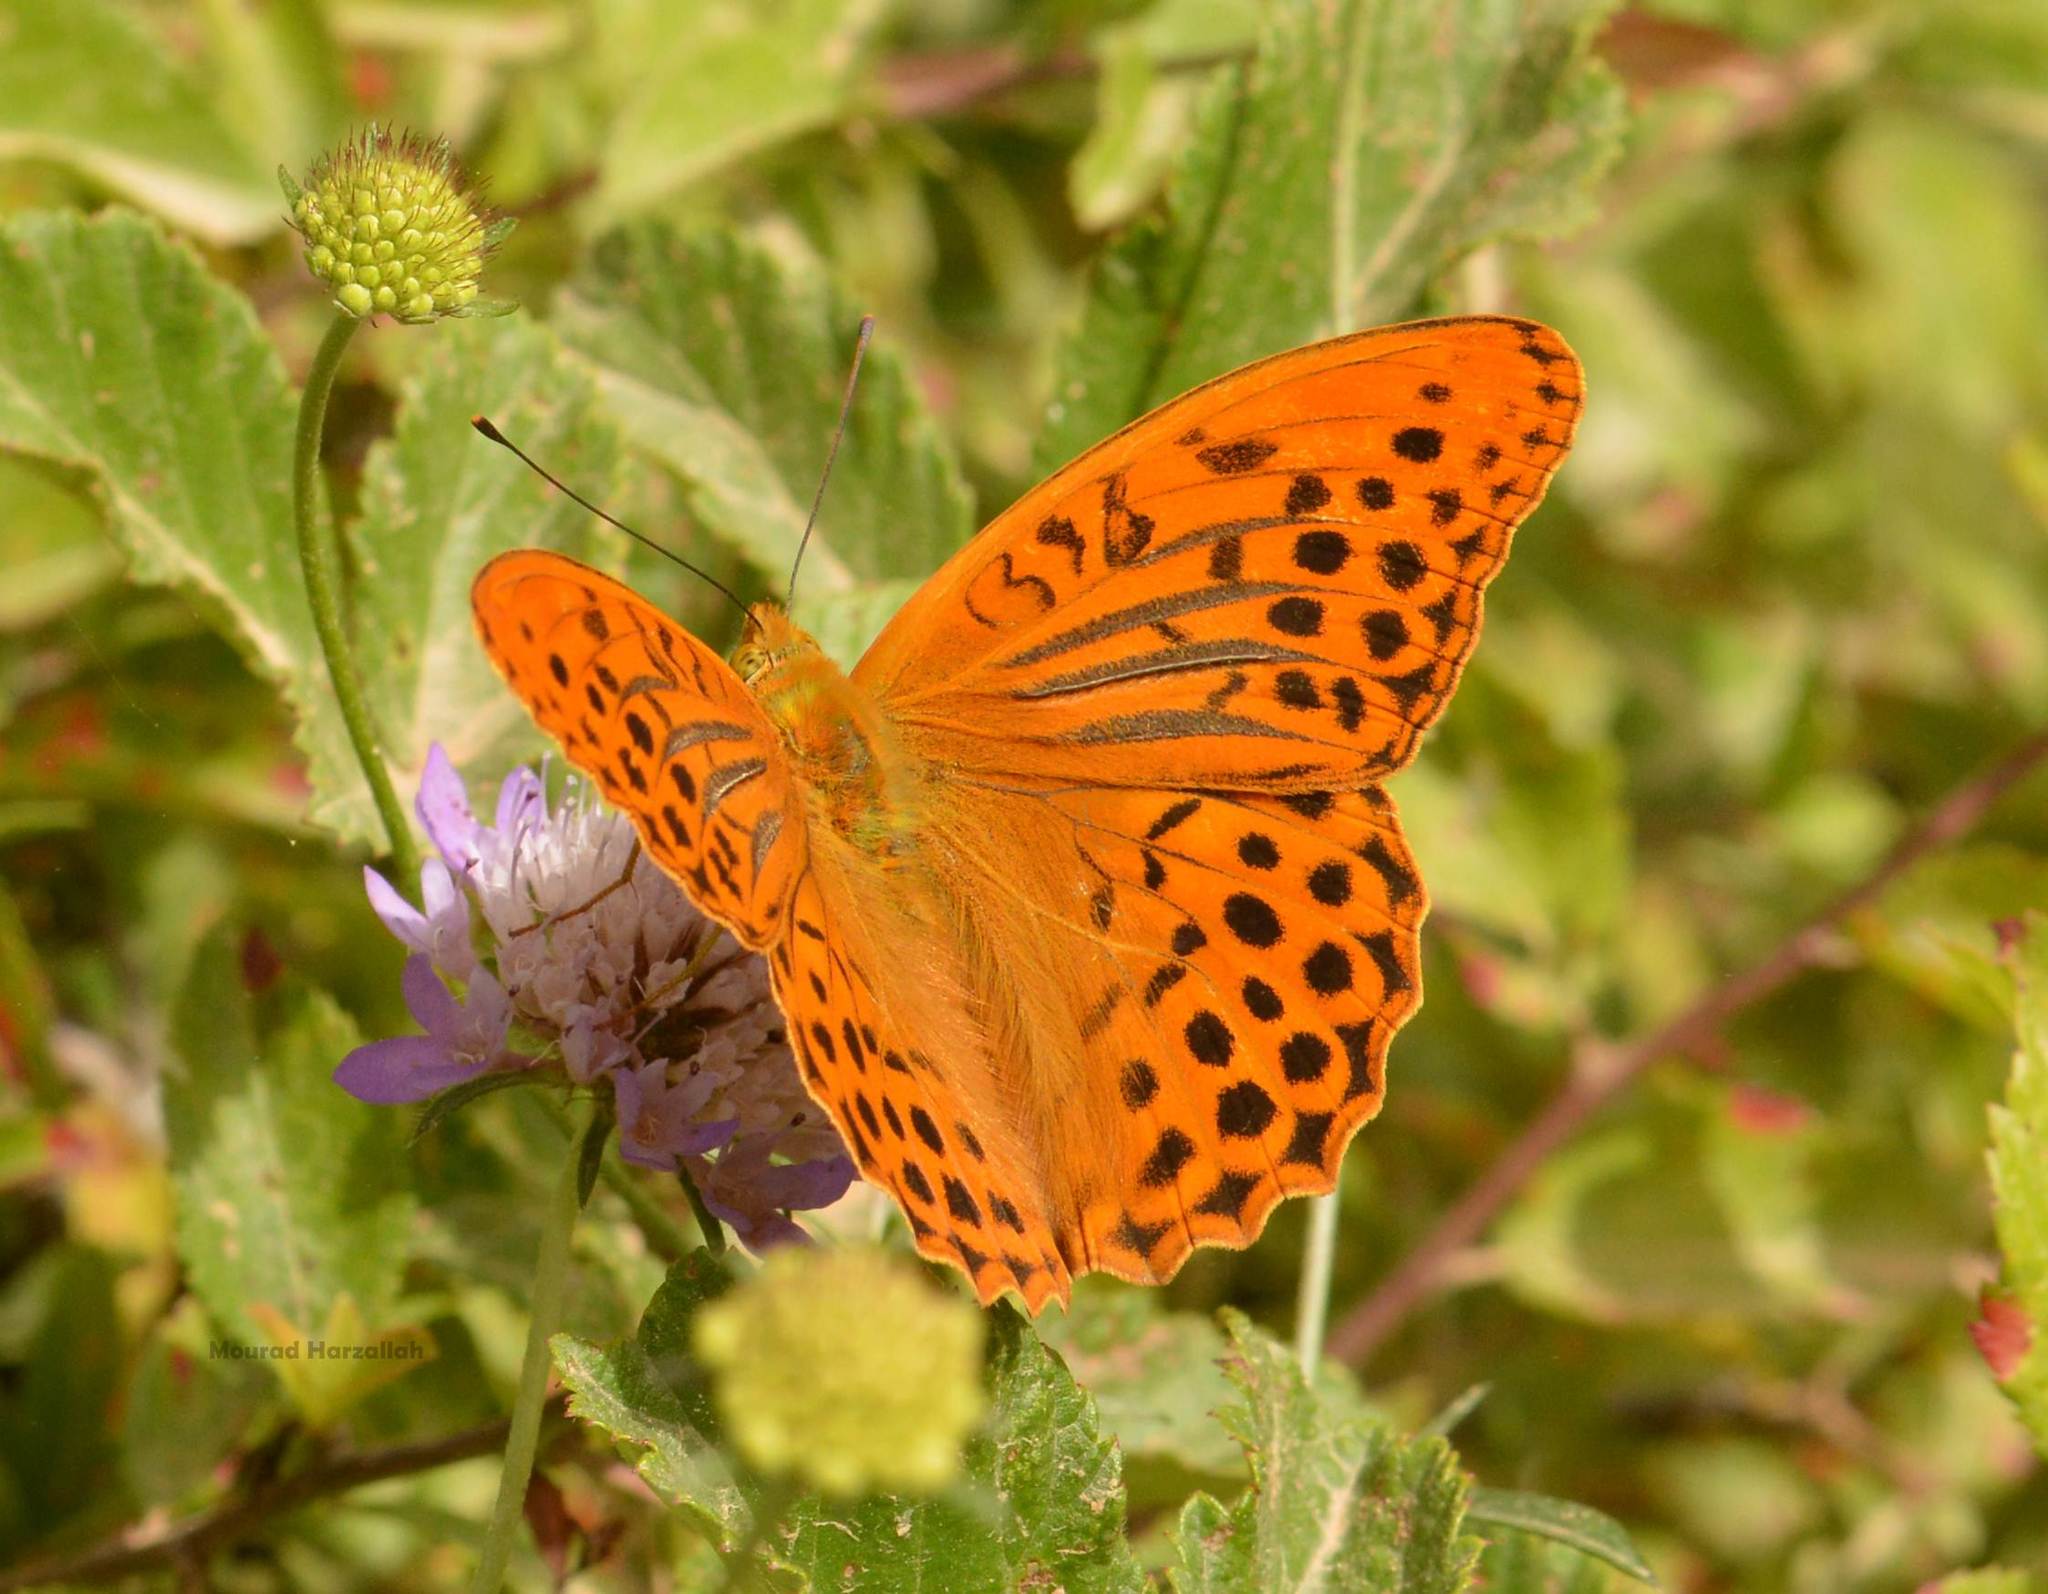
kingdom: Animalia
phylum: Arthropoda
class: Insecta
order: Lepidoptera
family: Nymphalidae
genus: Argynnis
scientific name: Argynnis paphia
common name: Silver-washed fritillary
